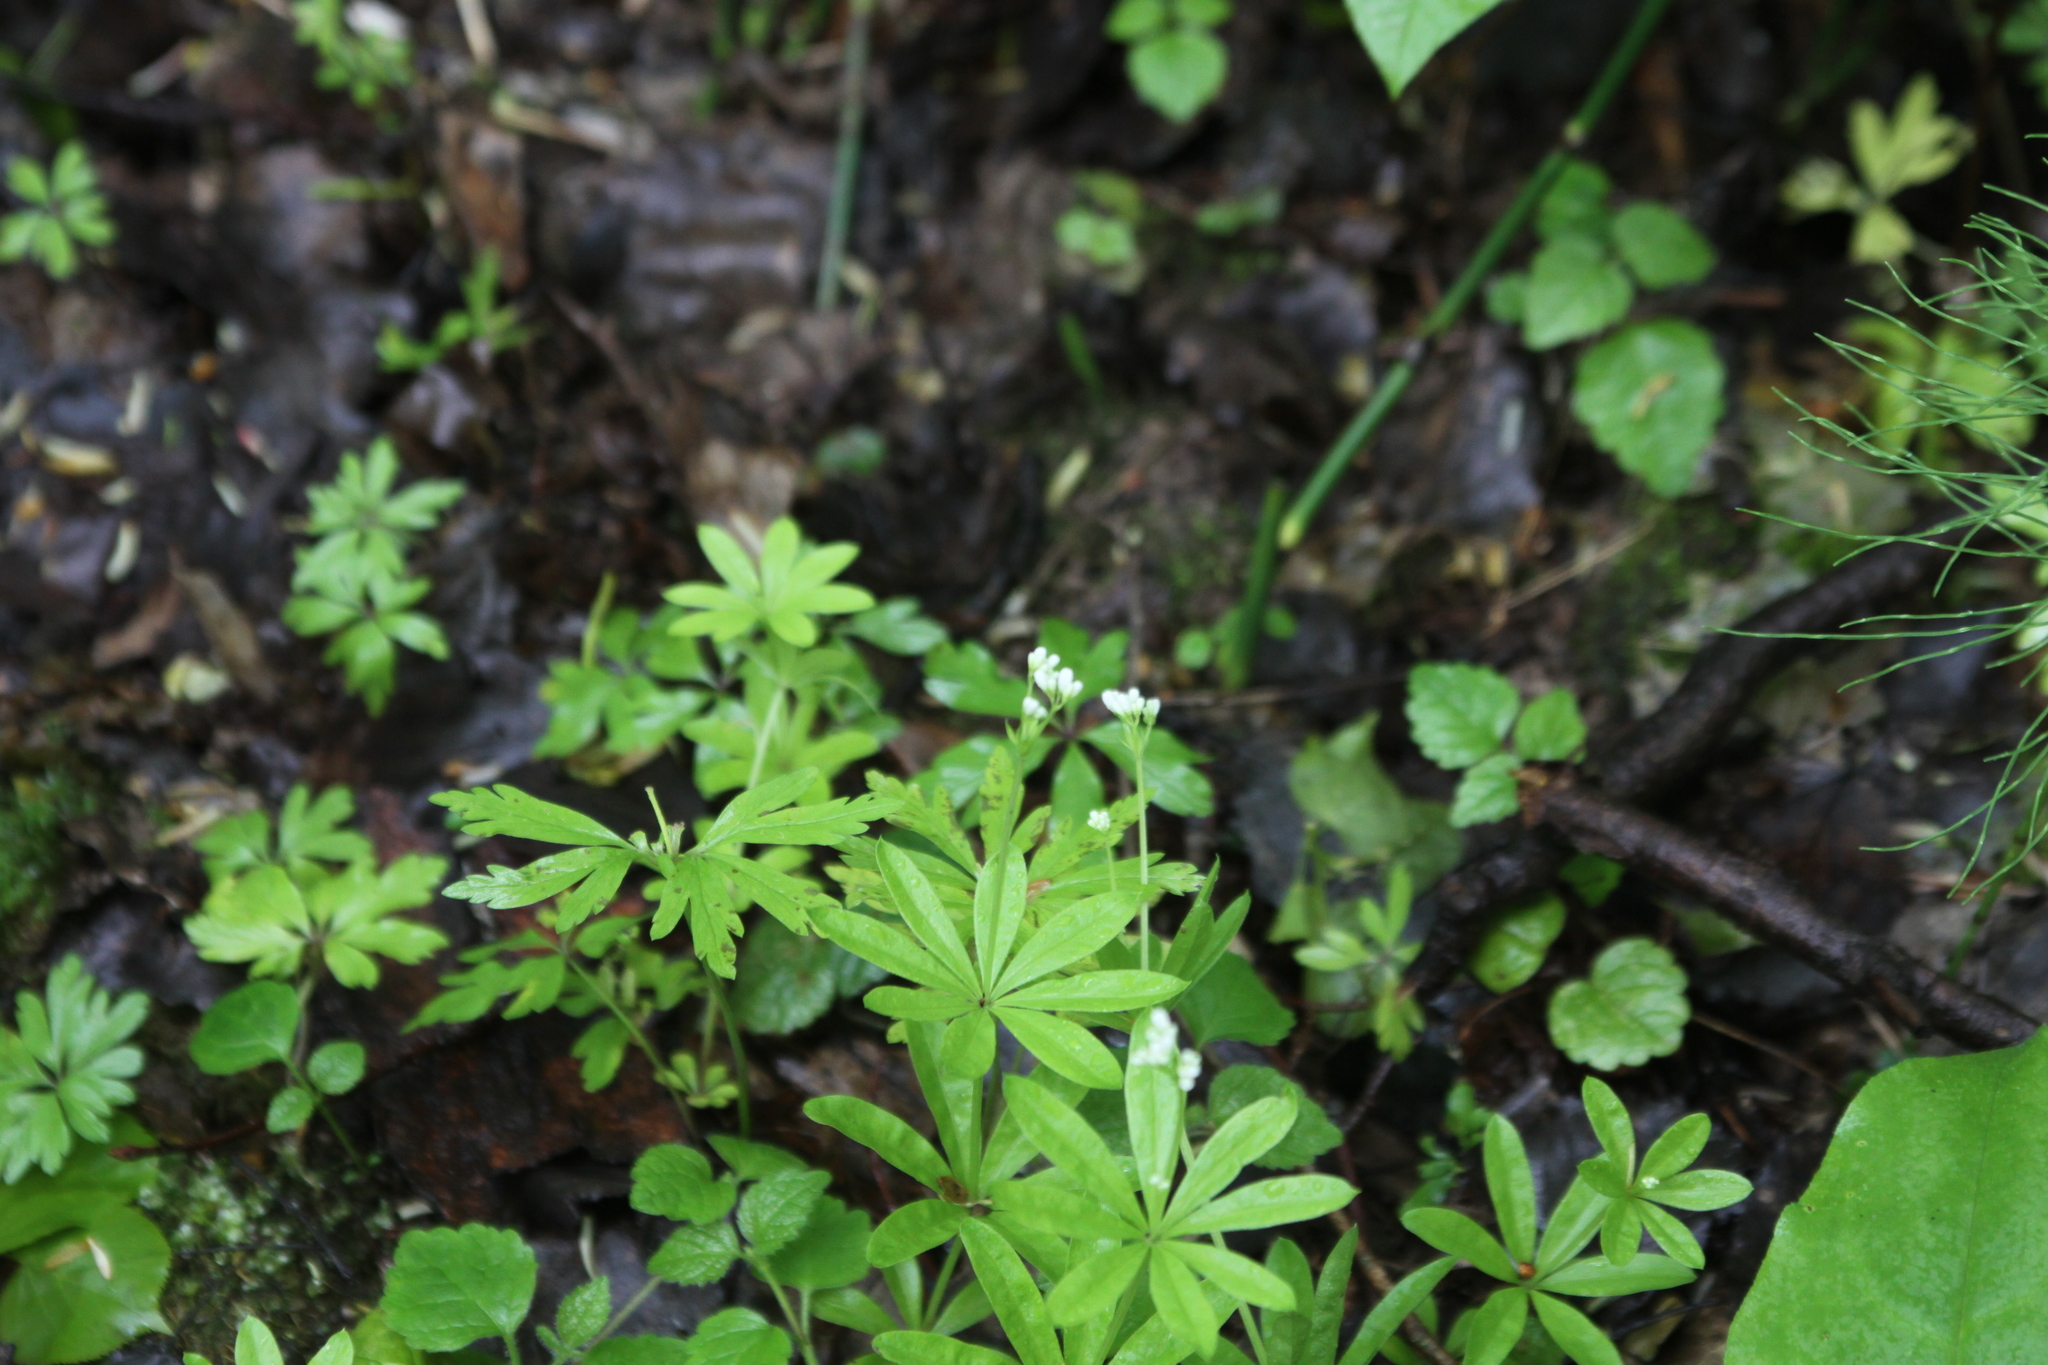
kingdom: Plantae
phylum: Tracheophyta
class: Magnoliopsida
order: Gentianales
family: Rubiaceae
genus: Galium
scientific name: Galium odoratum
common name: Sweet woodruff
